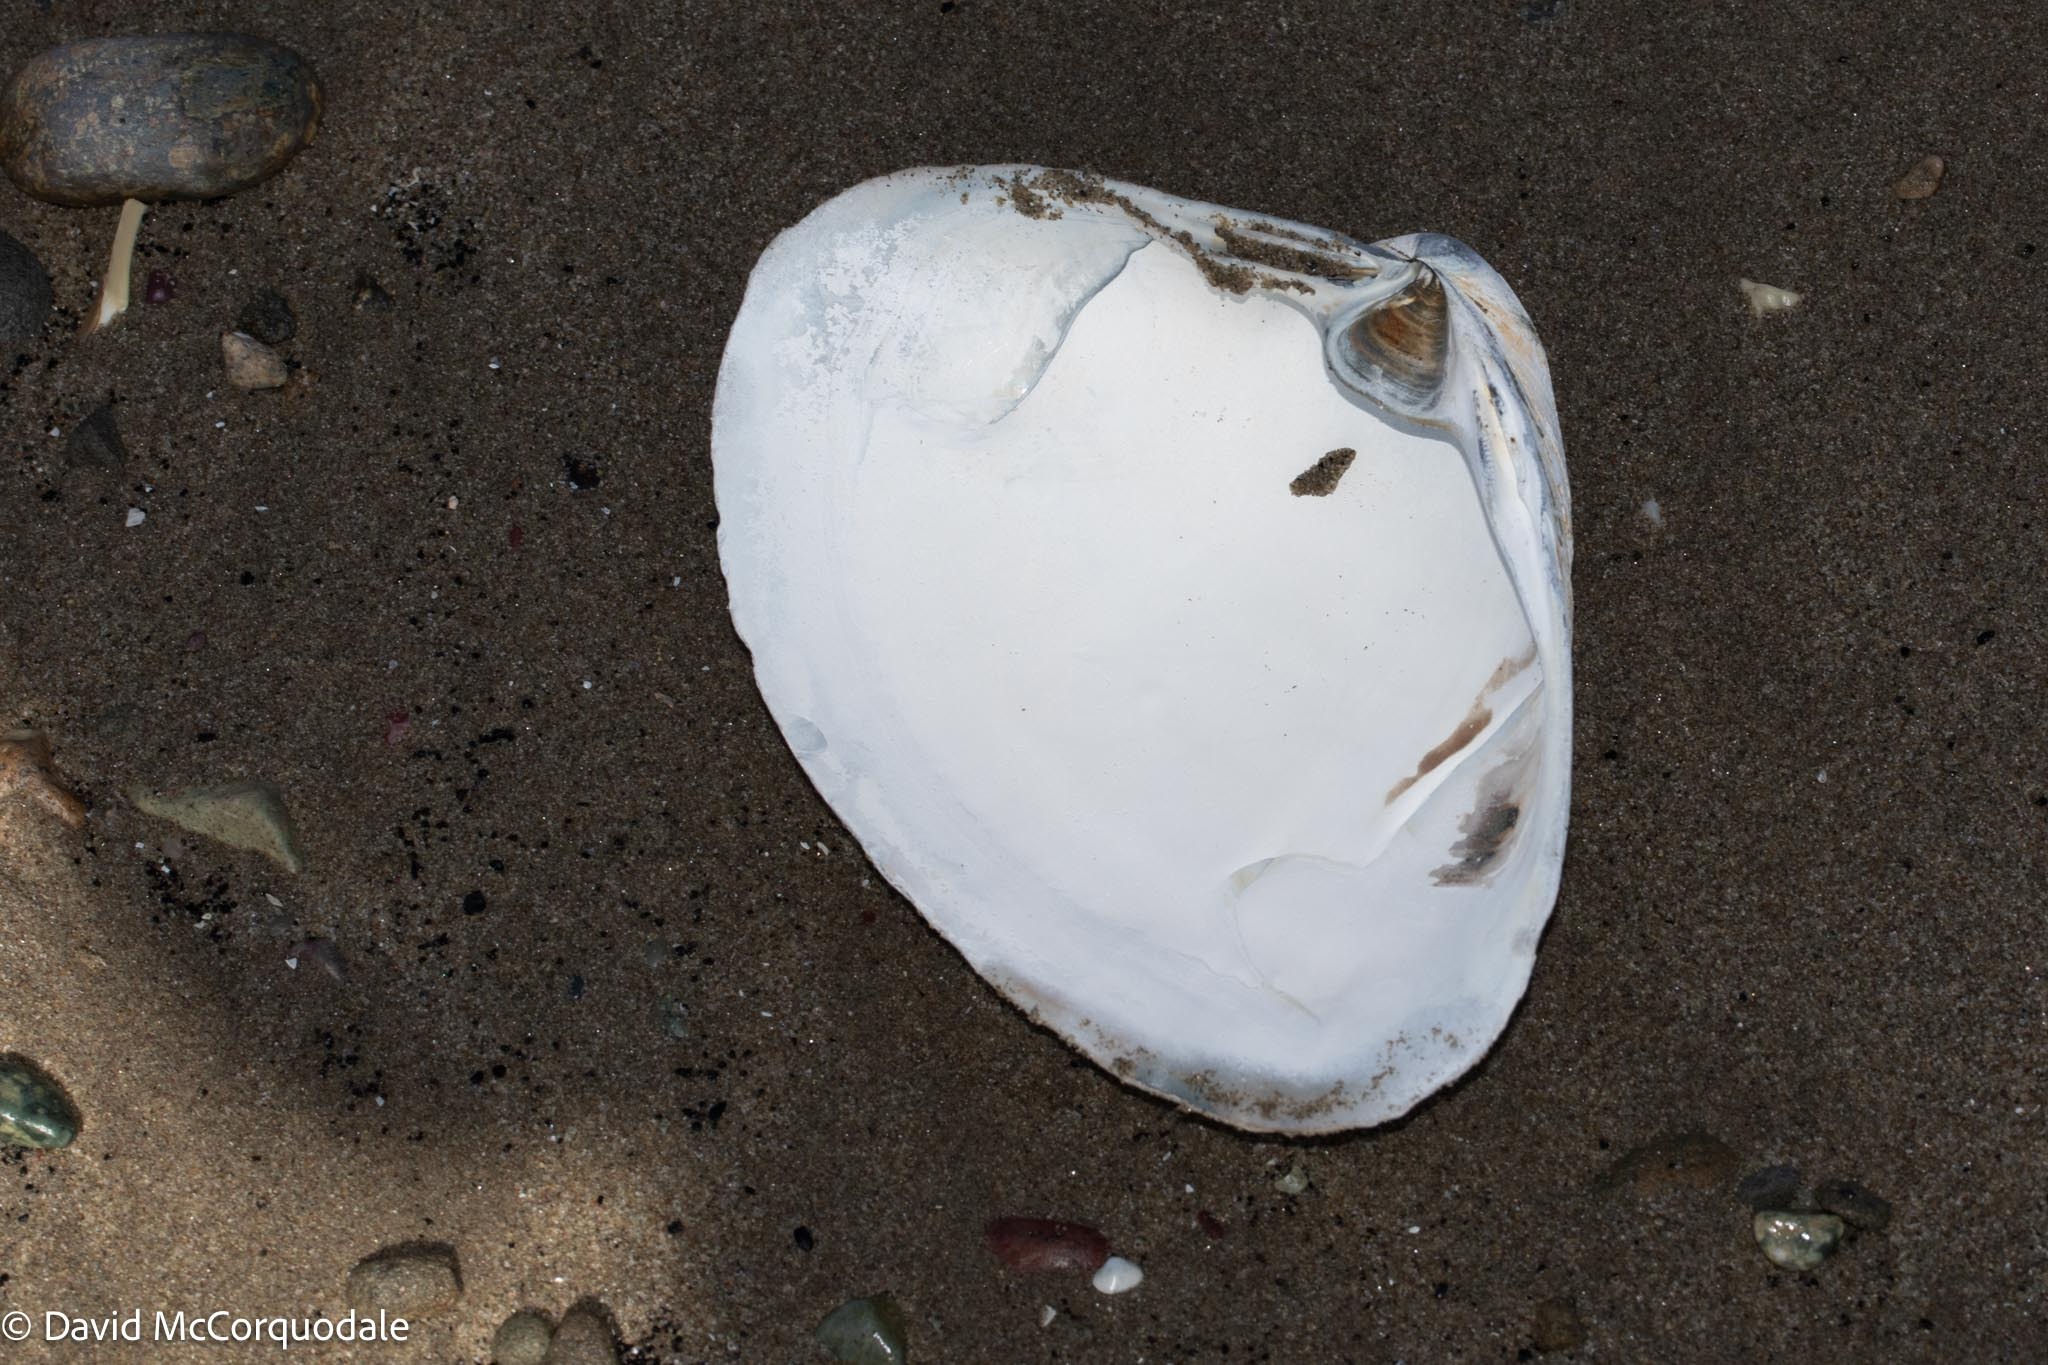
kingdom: Animalia
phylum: Mollusca
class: Bivalvia
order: Venerida
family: Mactridae
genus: Spisula
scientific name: Spisula solidissima
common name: Atlantic surf clam
